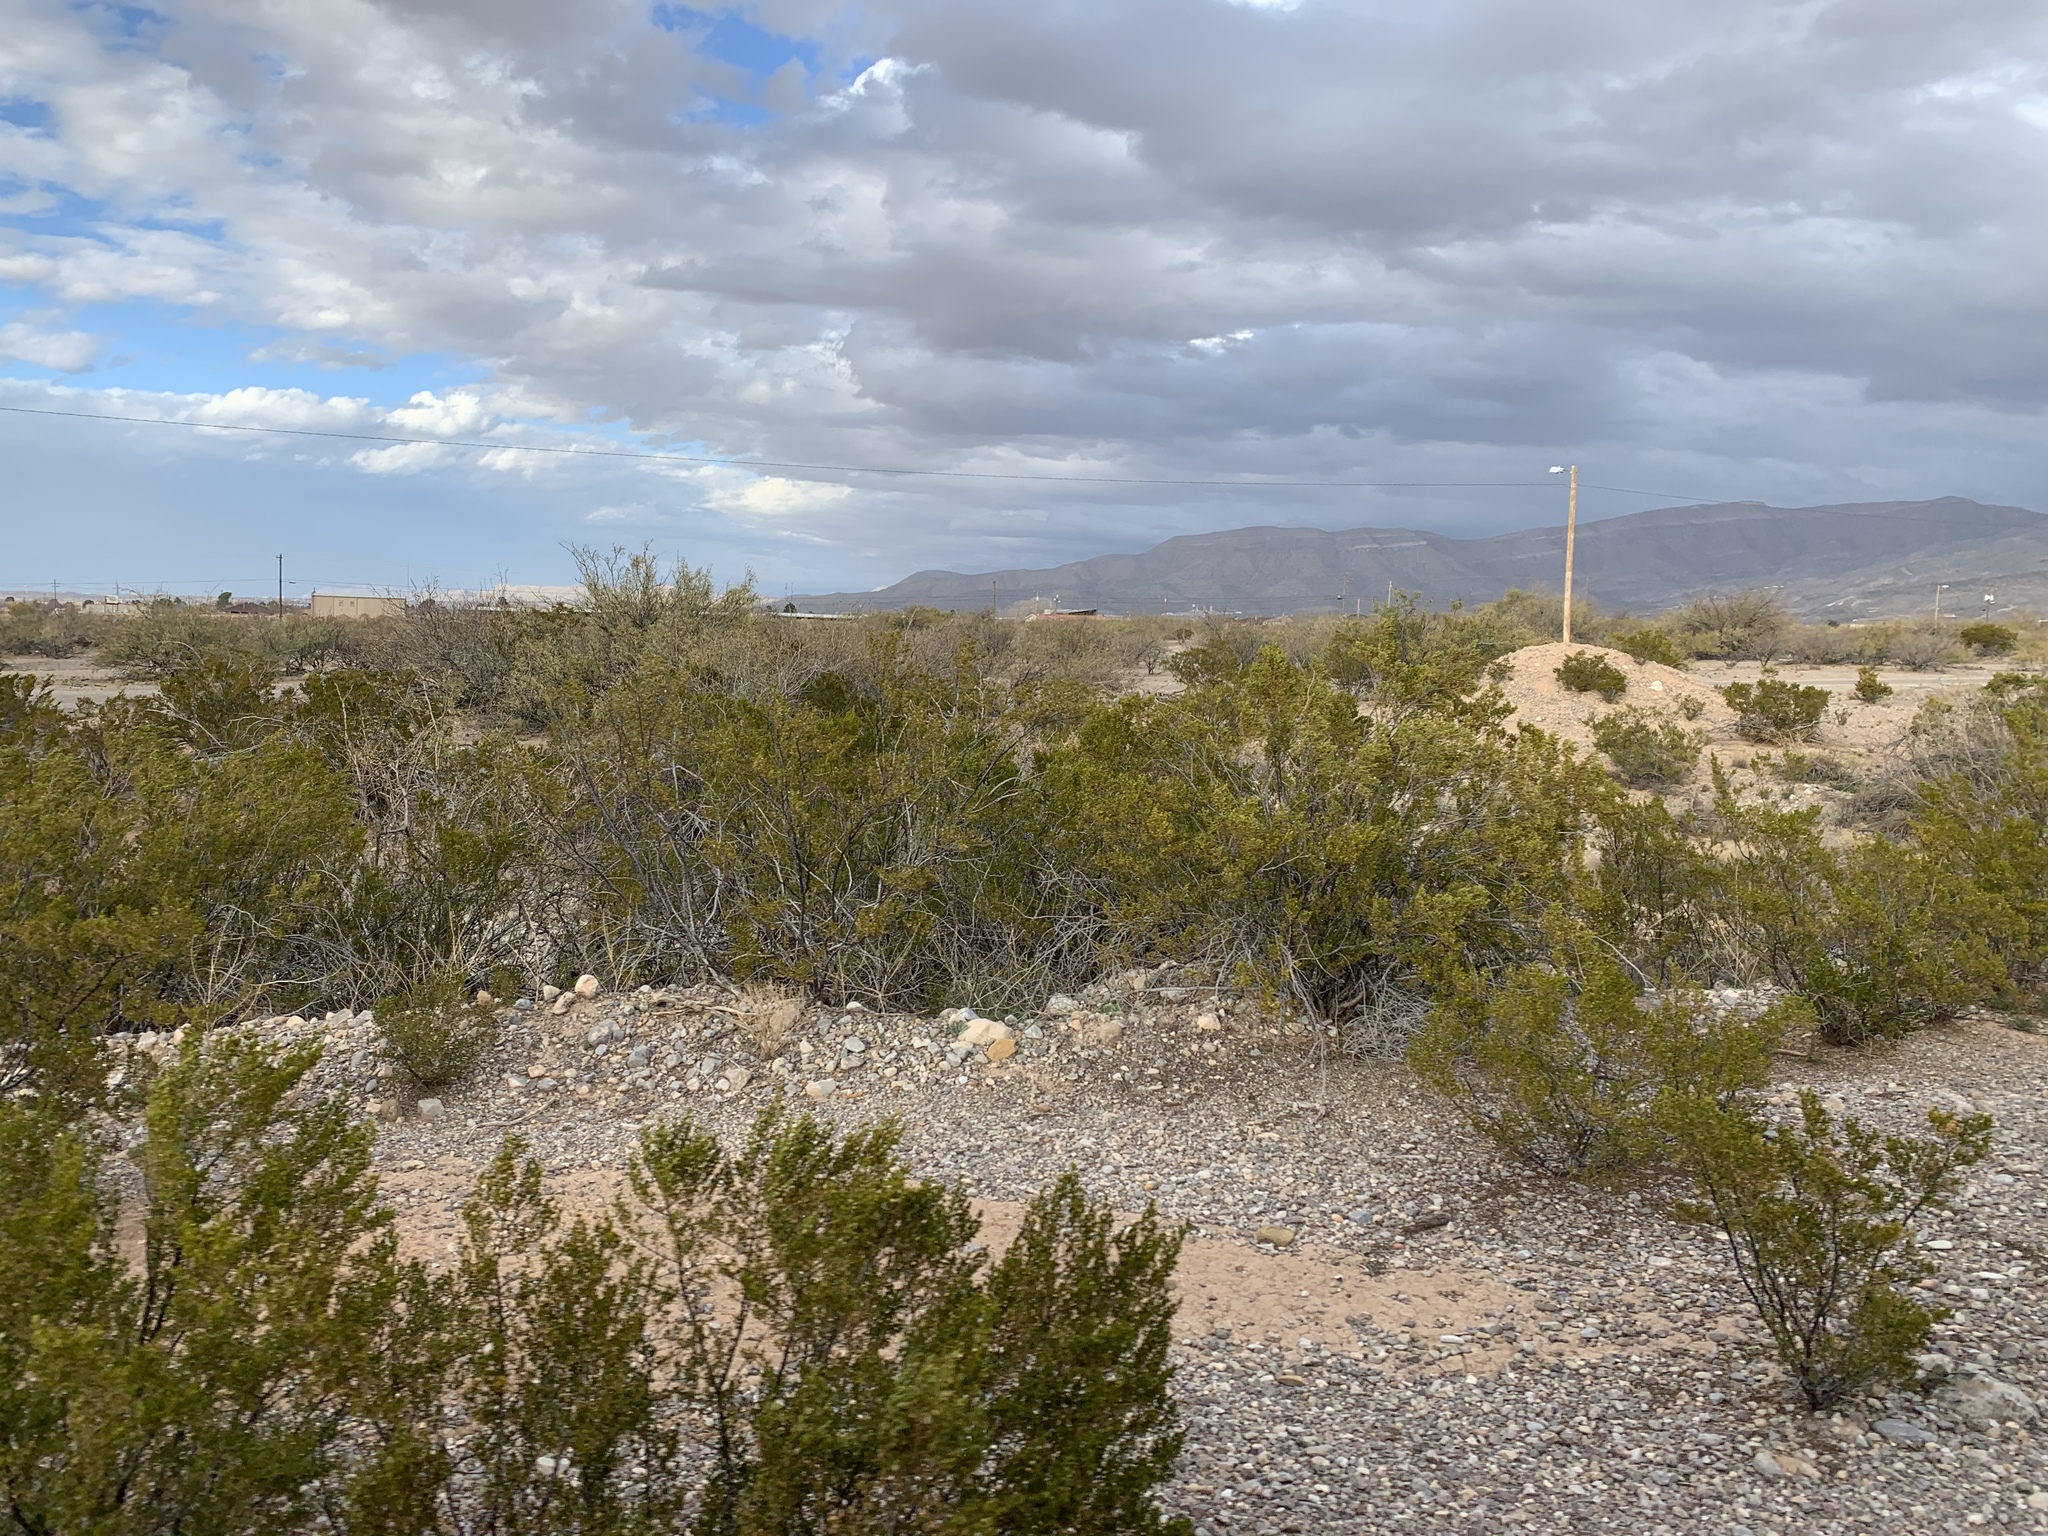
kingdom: Plantae
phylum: Tracheophyta
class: Magnoliopsida
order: Zygophyllales
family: Zygophyllaceae
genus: Larrea
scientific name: Larrea tridentata
